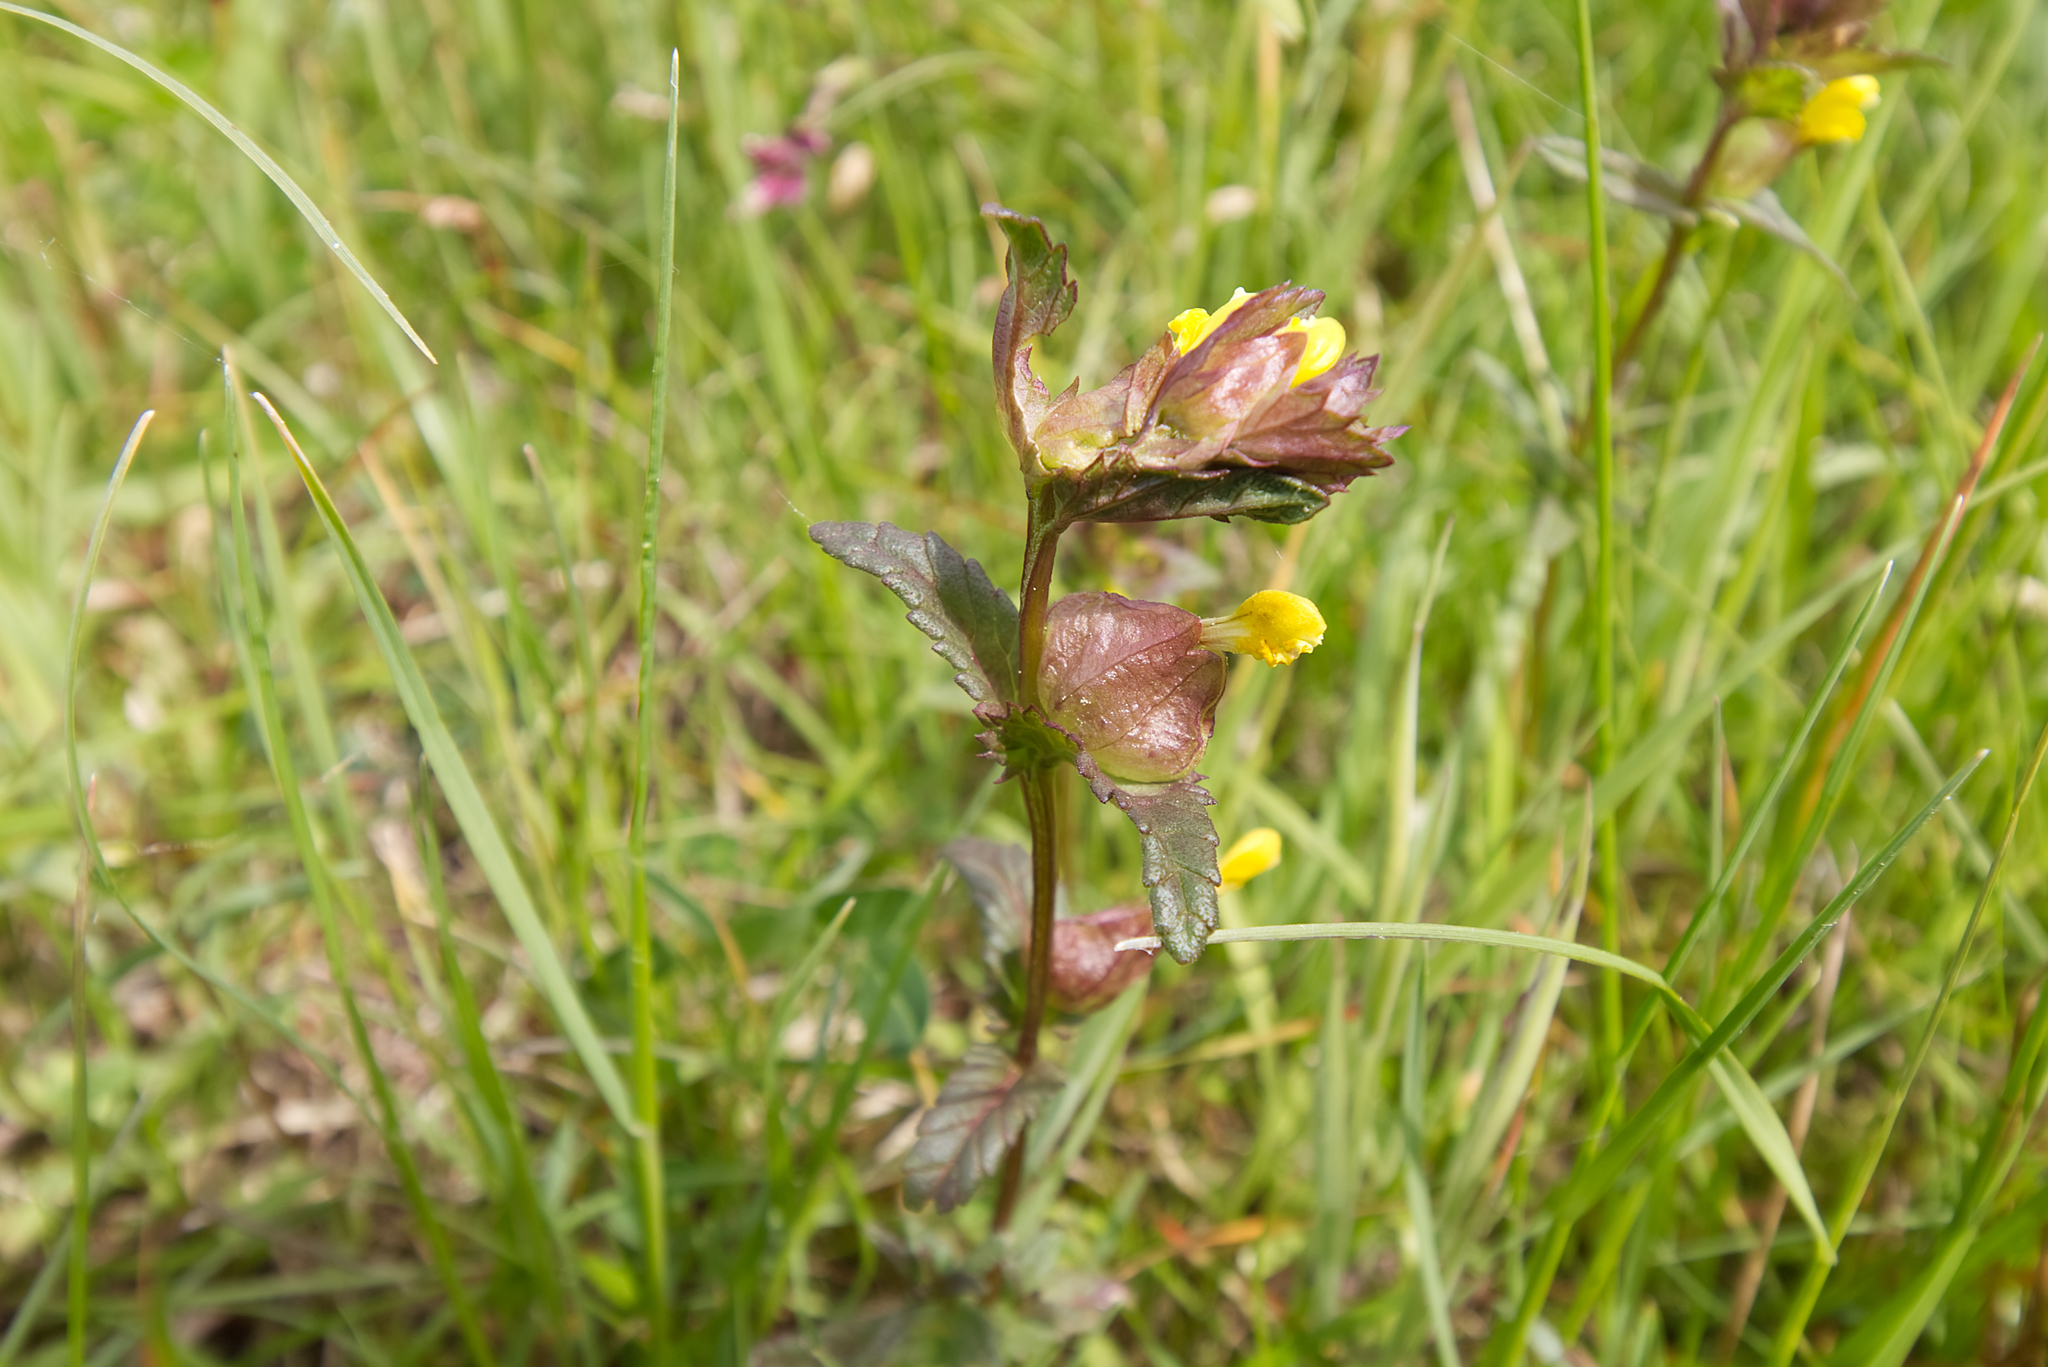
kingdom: Plantae
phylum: Tracheophyta
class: Magnoliopsida
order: Lamiales
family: Orobanchaceae
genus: Rhinanthus
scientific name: Rhinanthus minor
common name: Yellow-rattle
